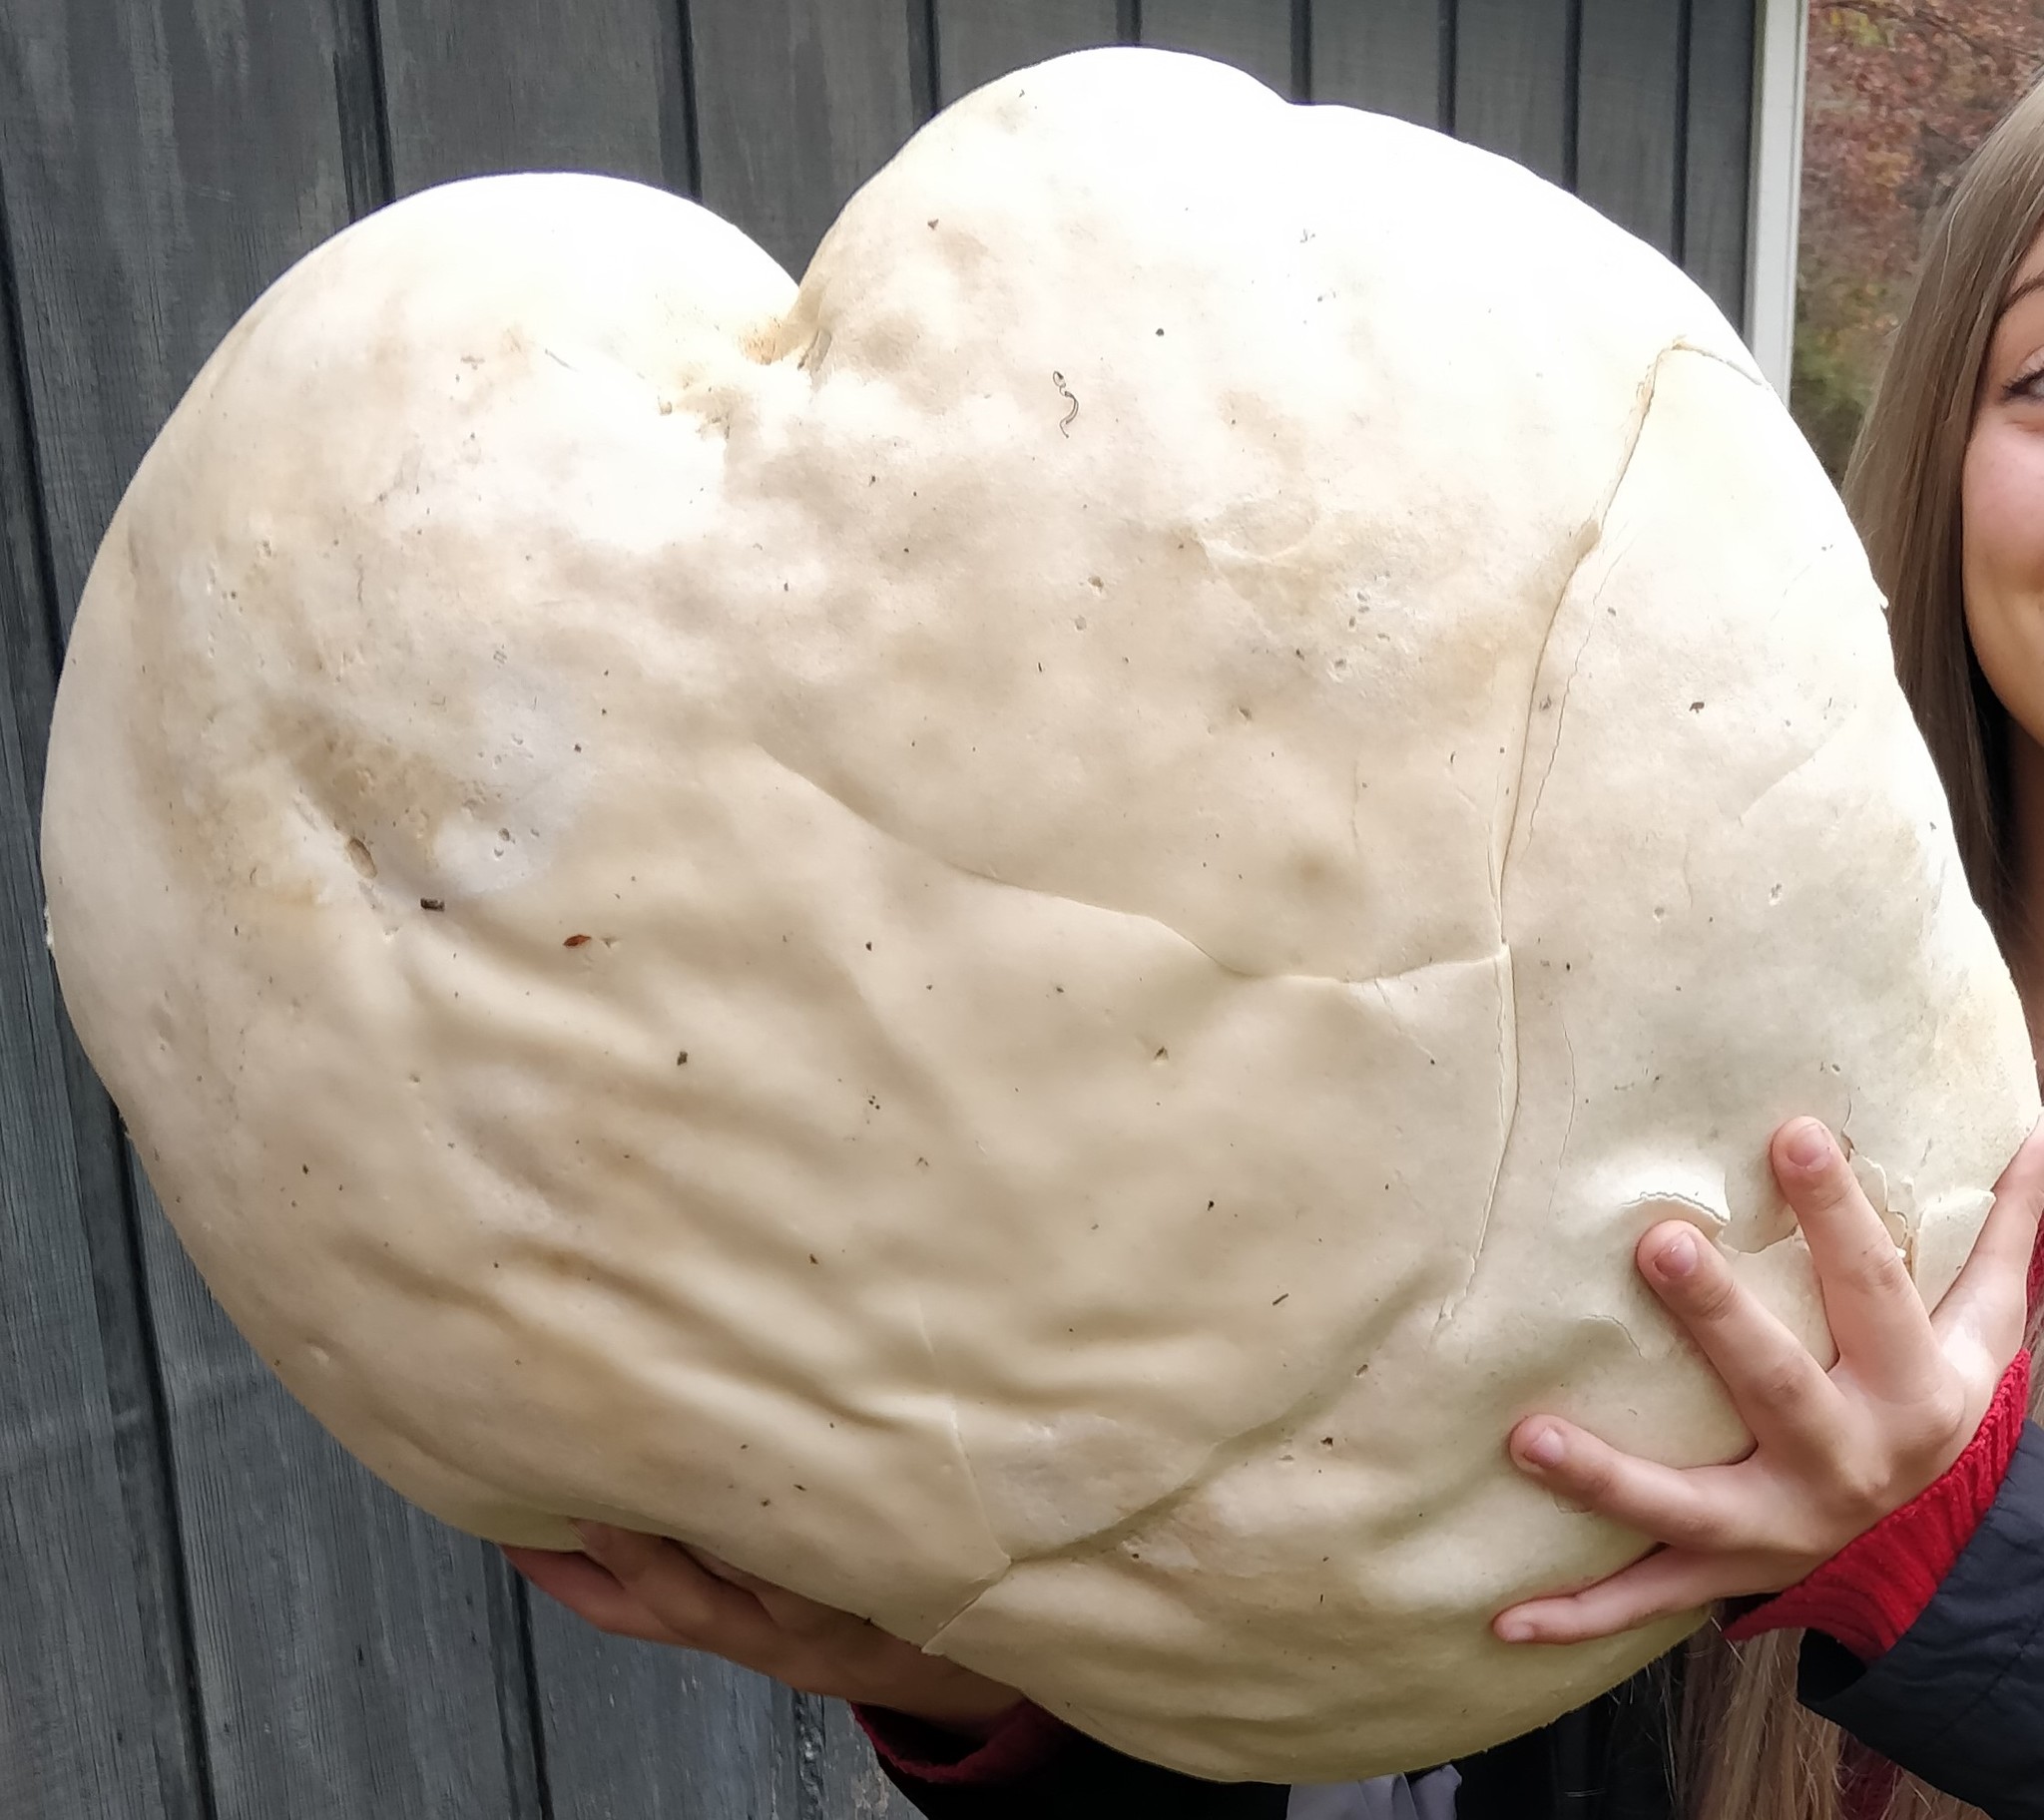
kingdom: Fungi
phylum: Basidiomycota
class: Agaricomycetes
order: Agaricales
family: Lycoperdaceae
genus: Calvatia
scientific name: Calvatia gigantea
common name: Giant puffball
